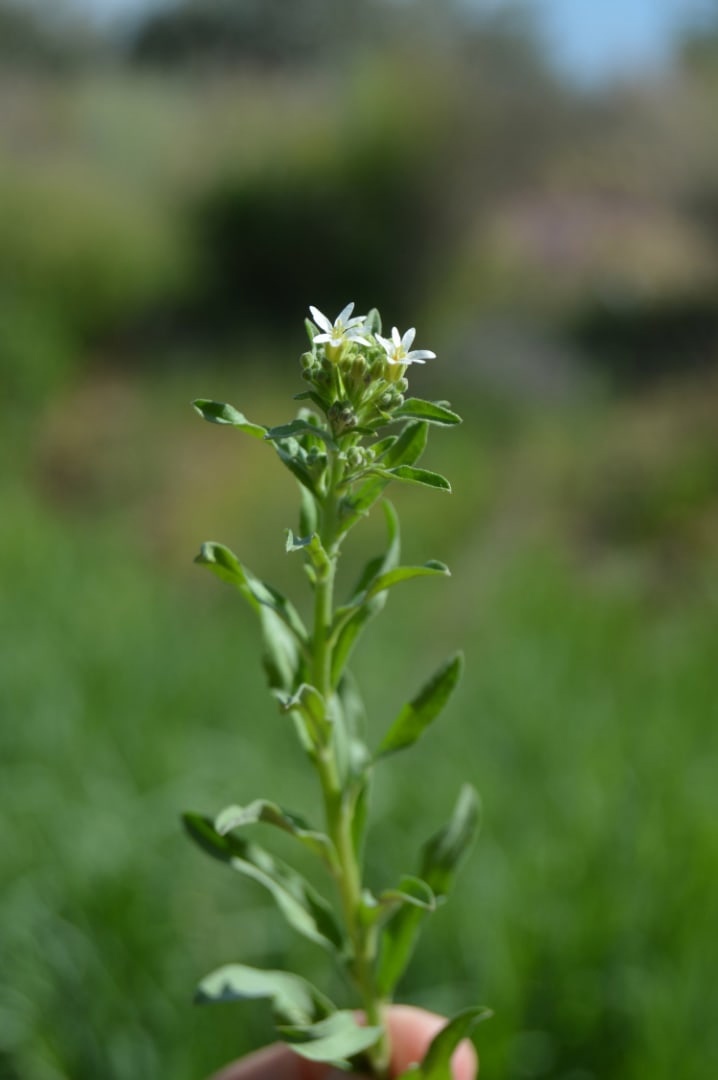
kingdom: Plantae
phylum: Tracheophyta
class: Magnoliopsida
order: Brassicales
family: Brassicaceae
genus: Berteroa
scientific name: Berteroa incana
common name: Hoary alison
